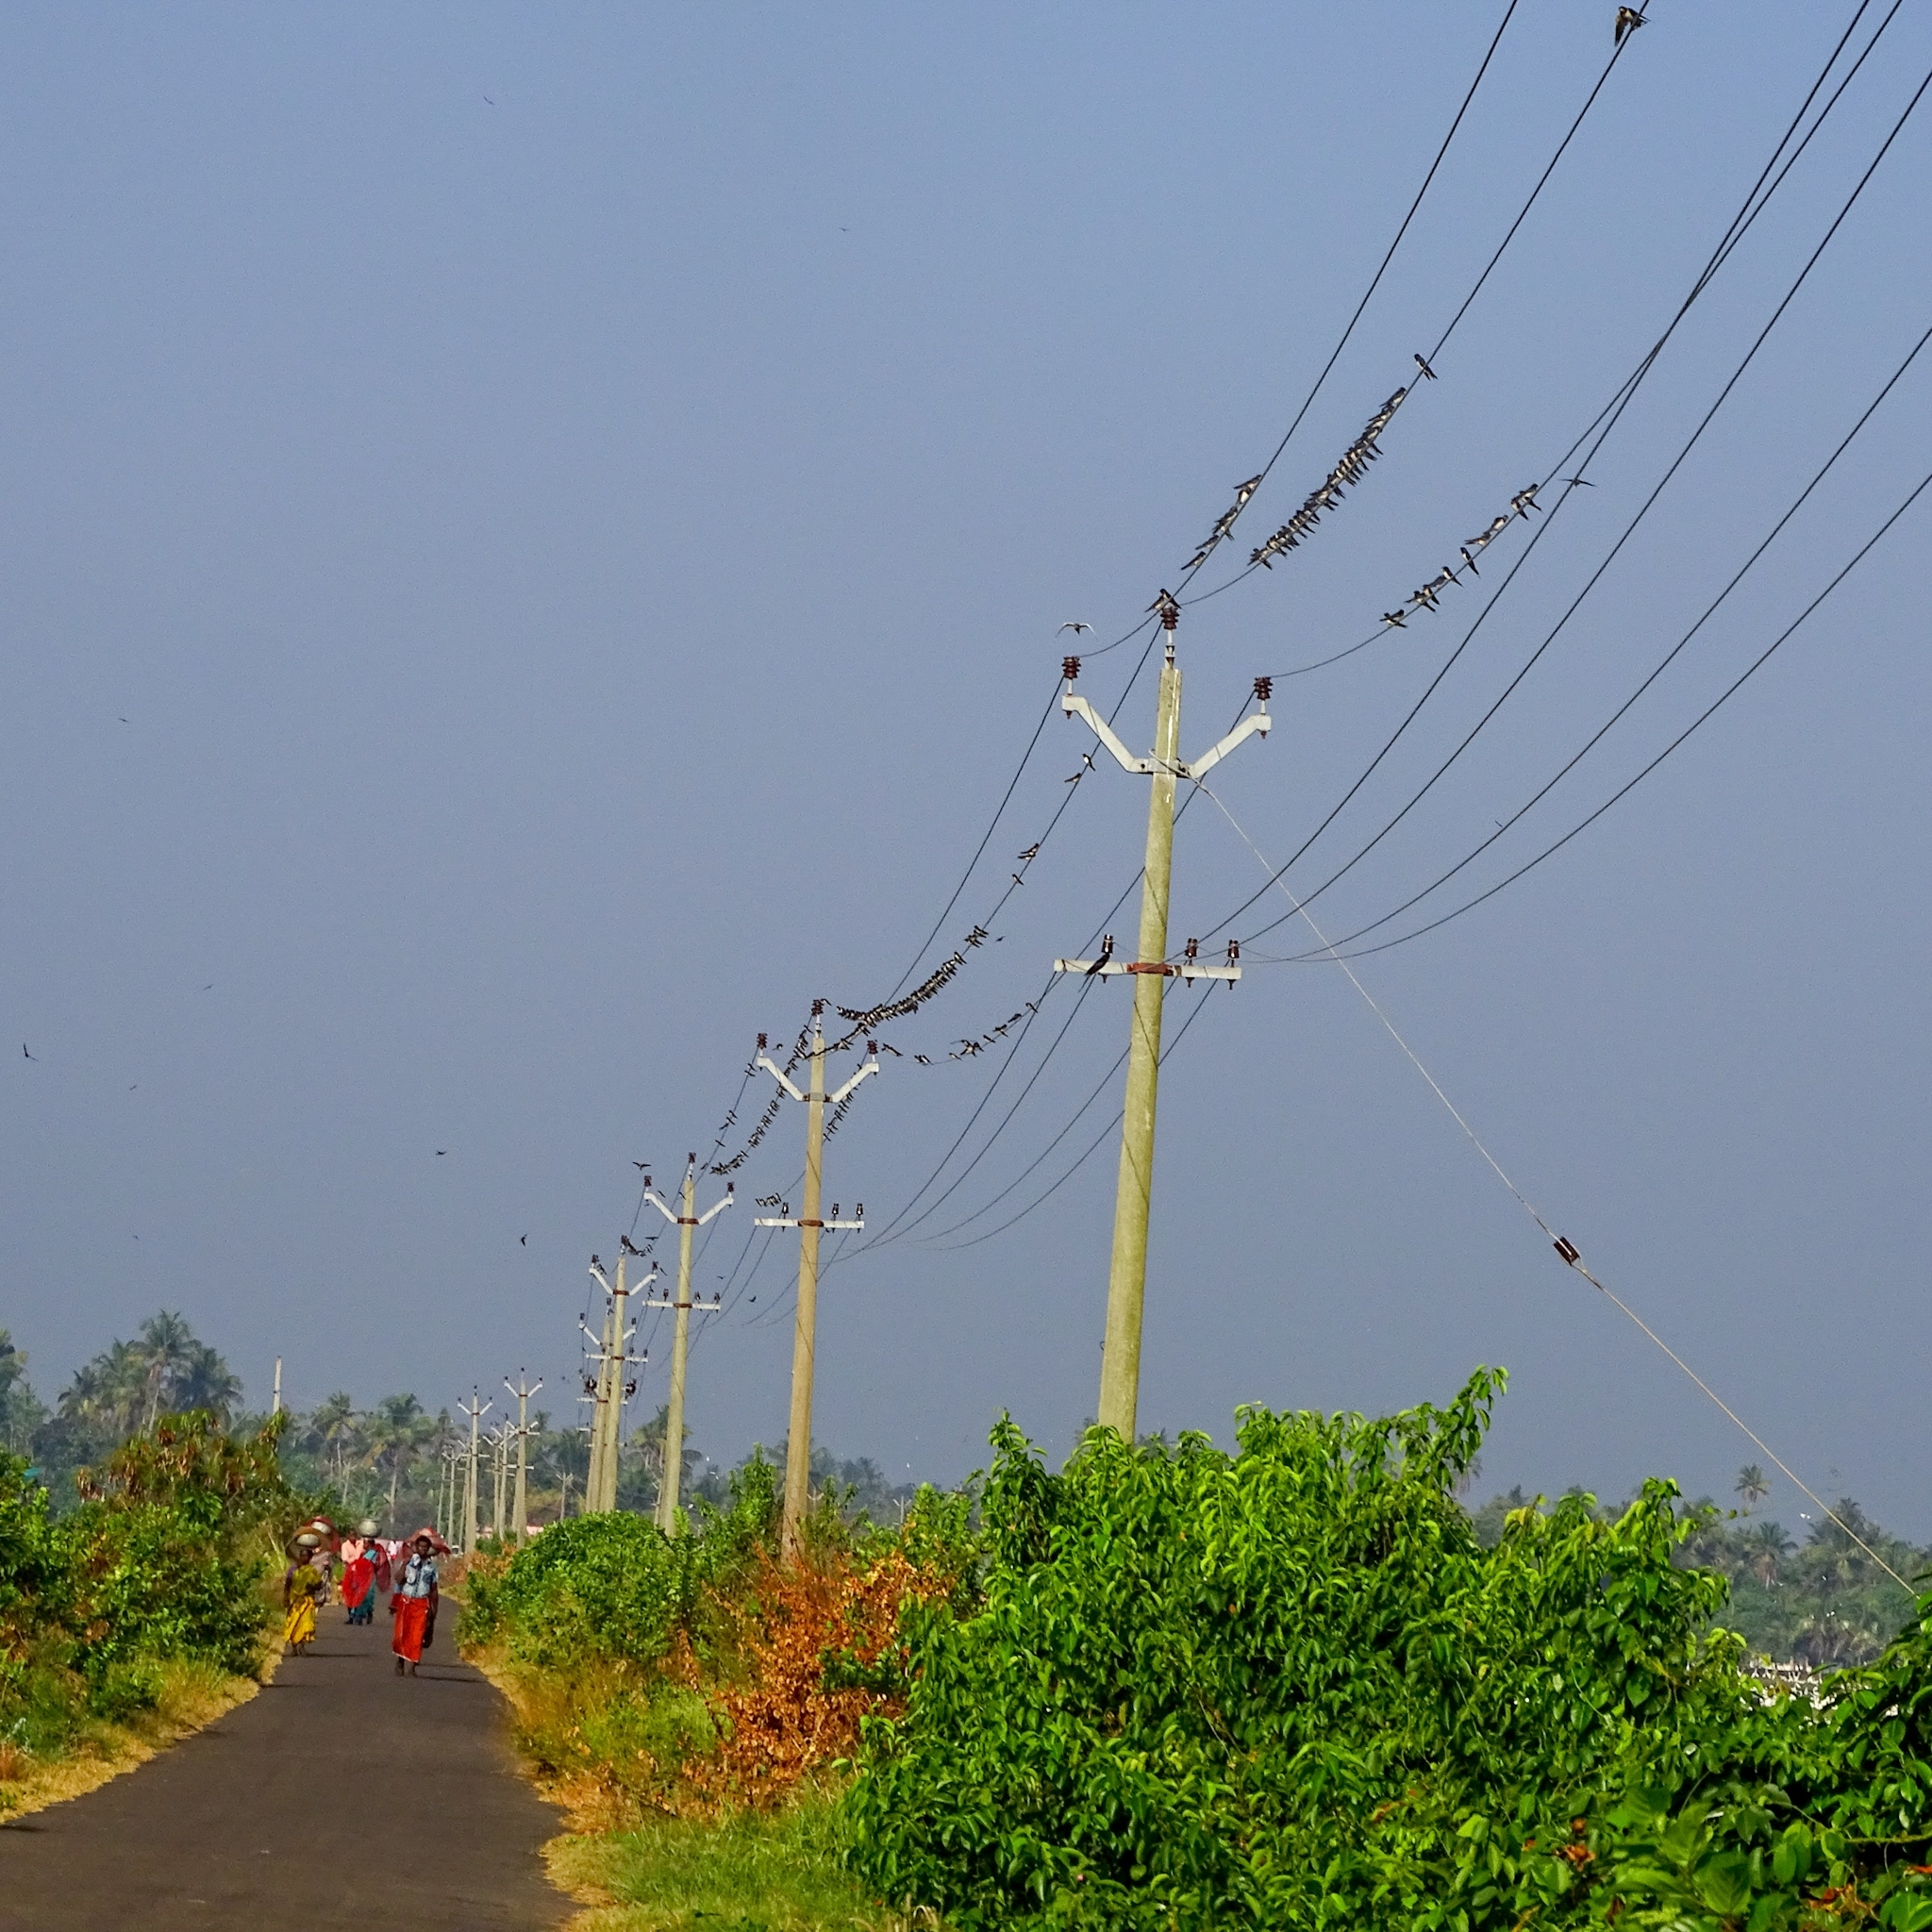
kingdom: Animalia
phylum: Chordata
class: Aves
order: Passeriformes
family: Hirundinidae
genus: Hirundo
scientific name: Hirundo rustica
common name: Barn swallow
